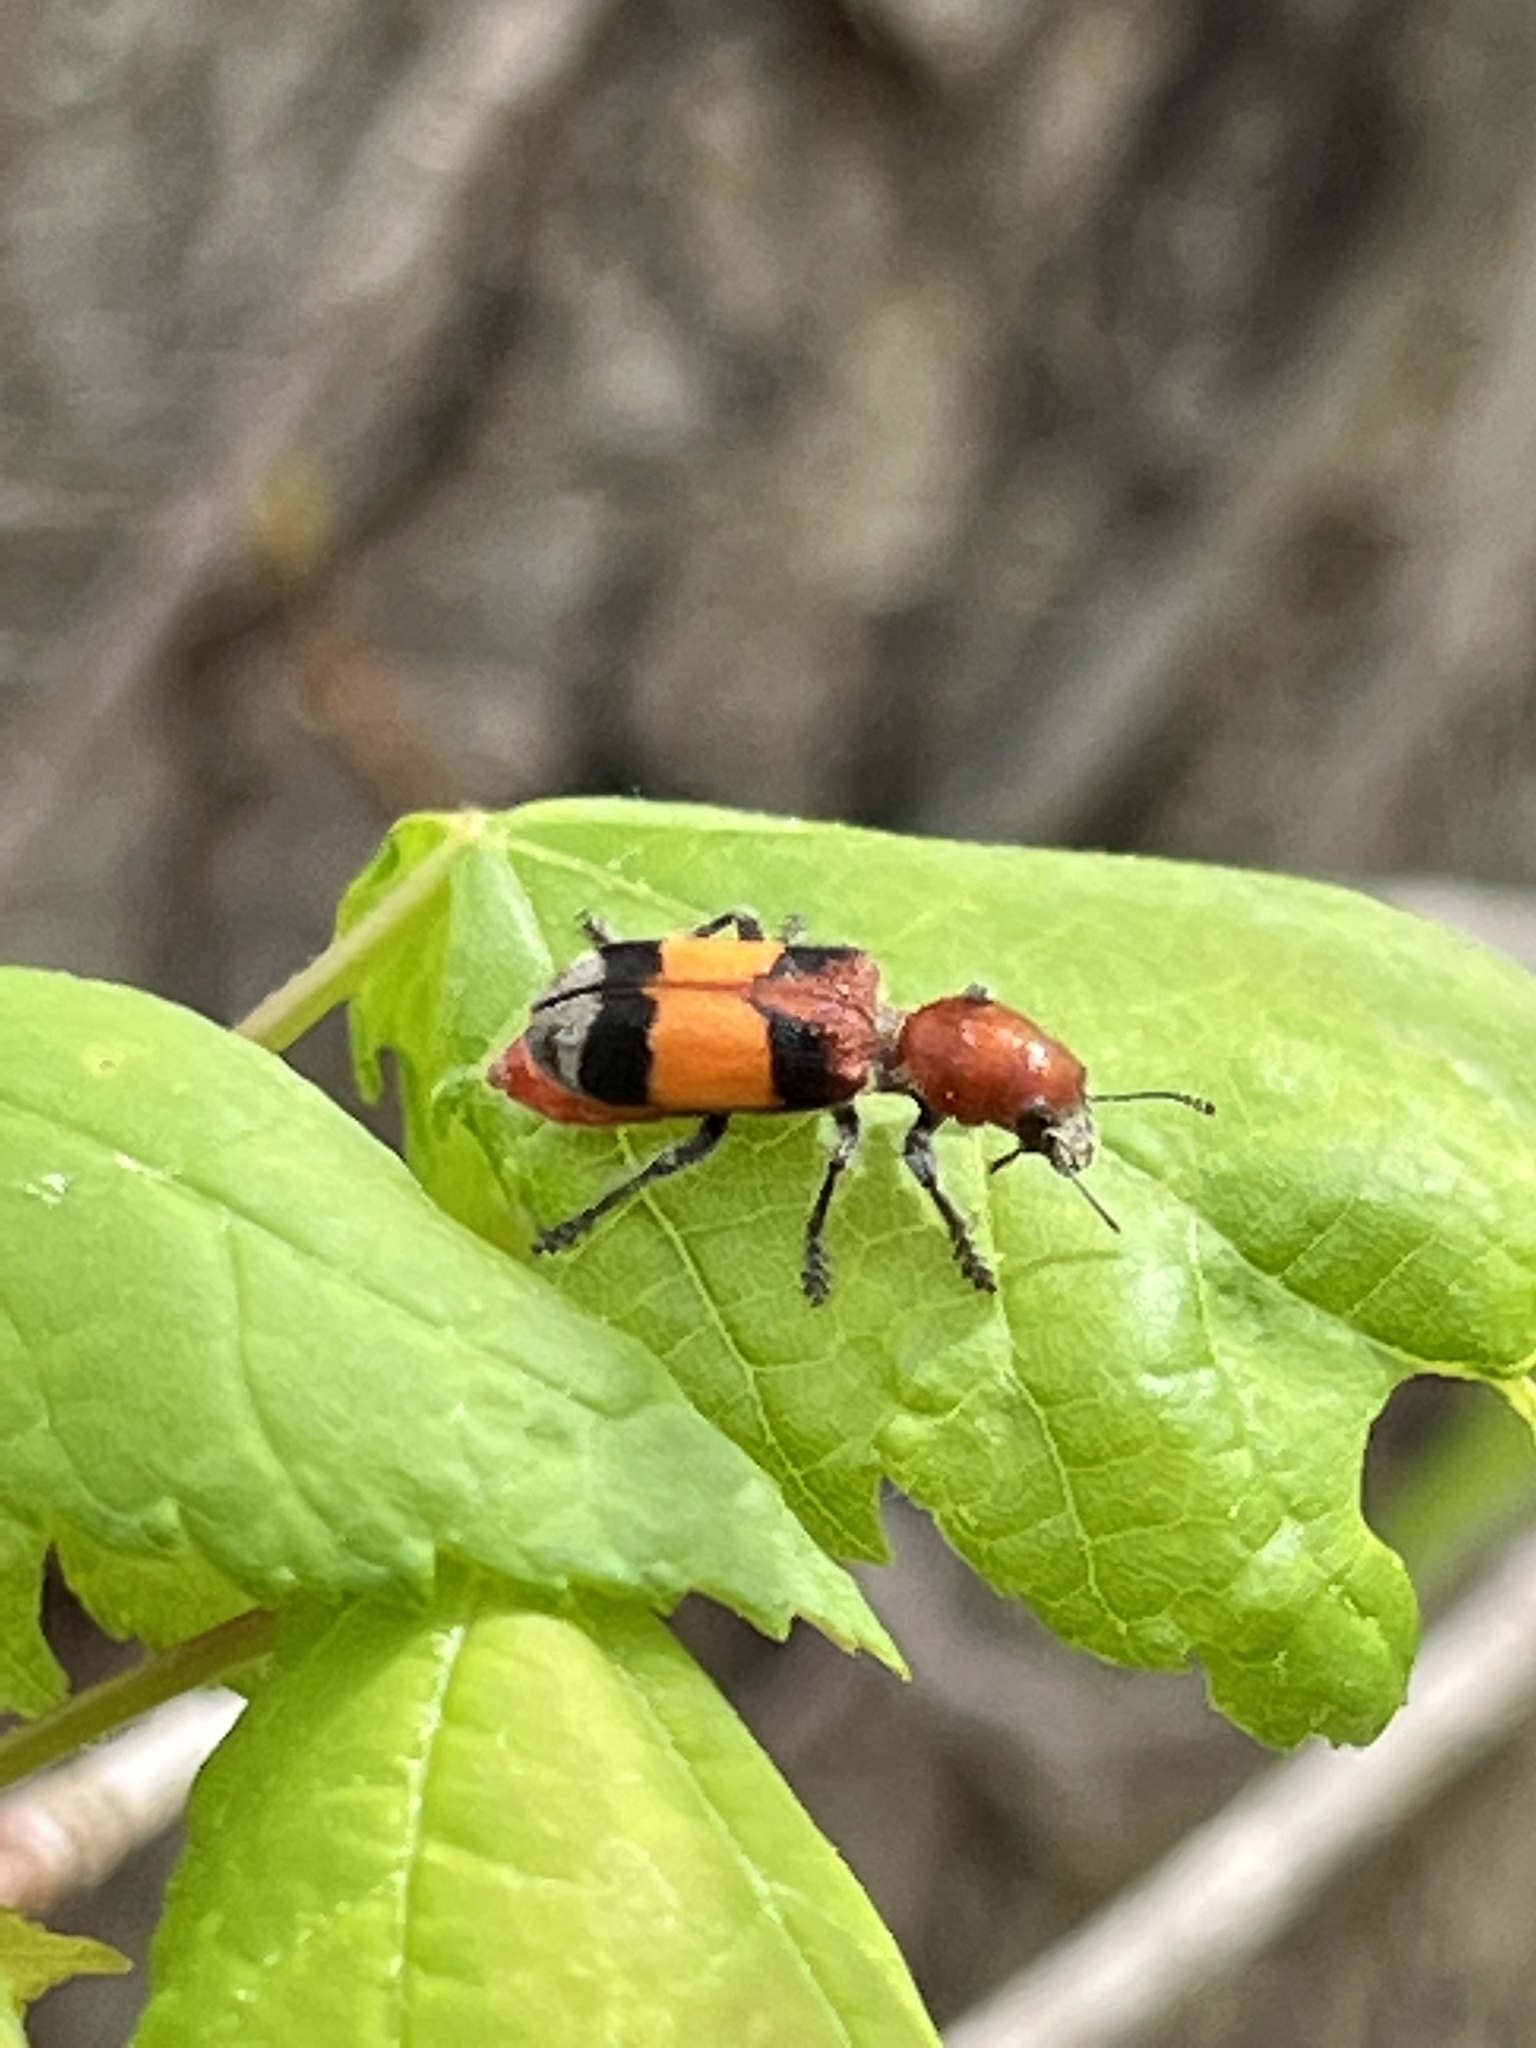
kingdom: Animalia
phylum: Arthropoda
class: Insecta
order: Coleoptera
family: Cleridae
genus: Enoclerus
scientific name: Enoclerus ichneumoneus
